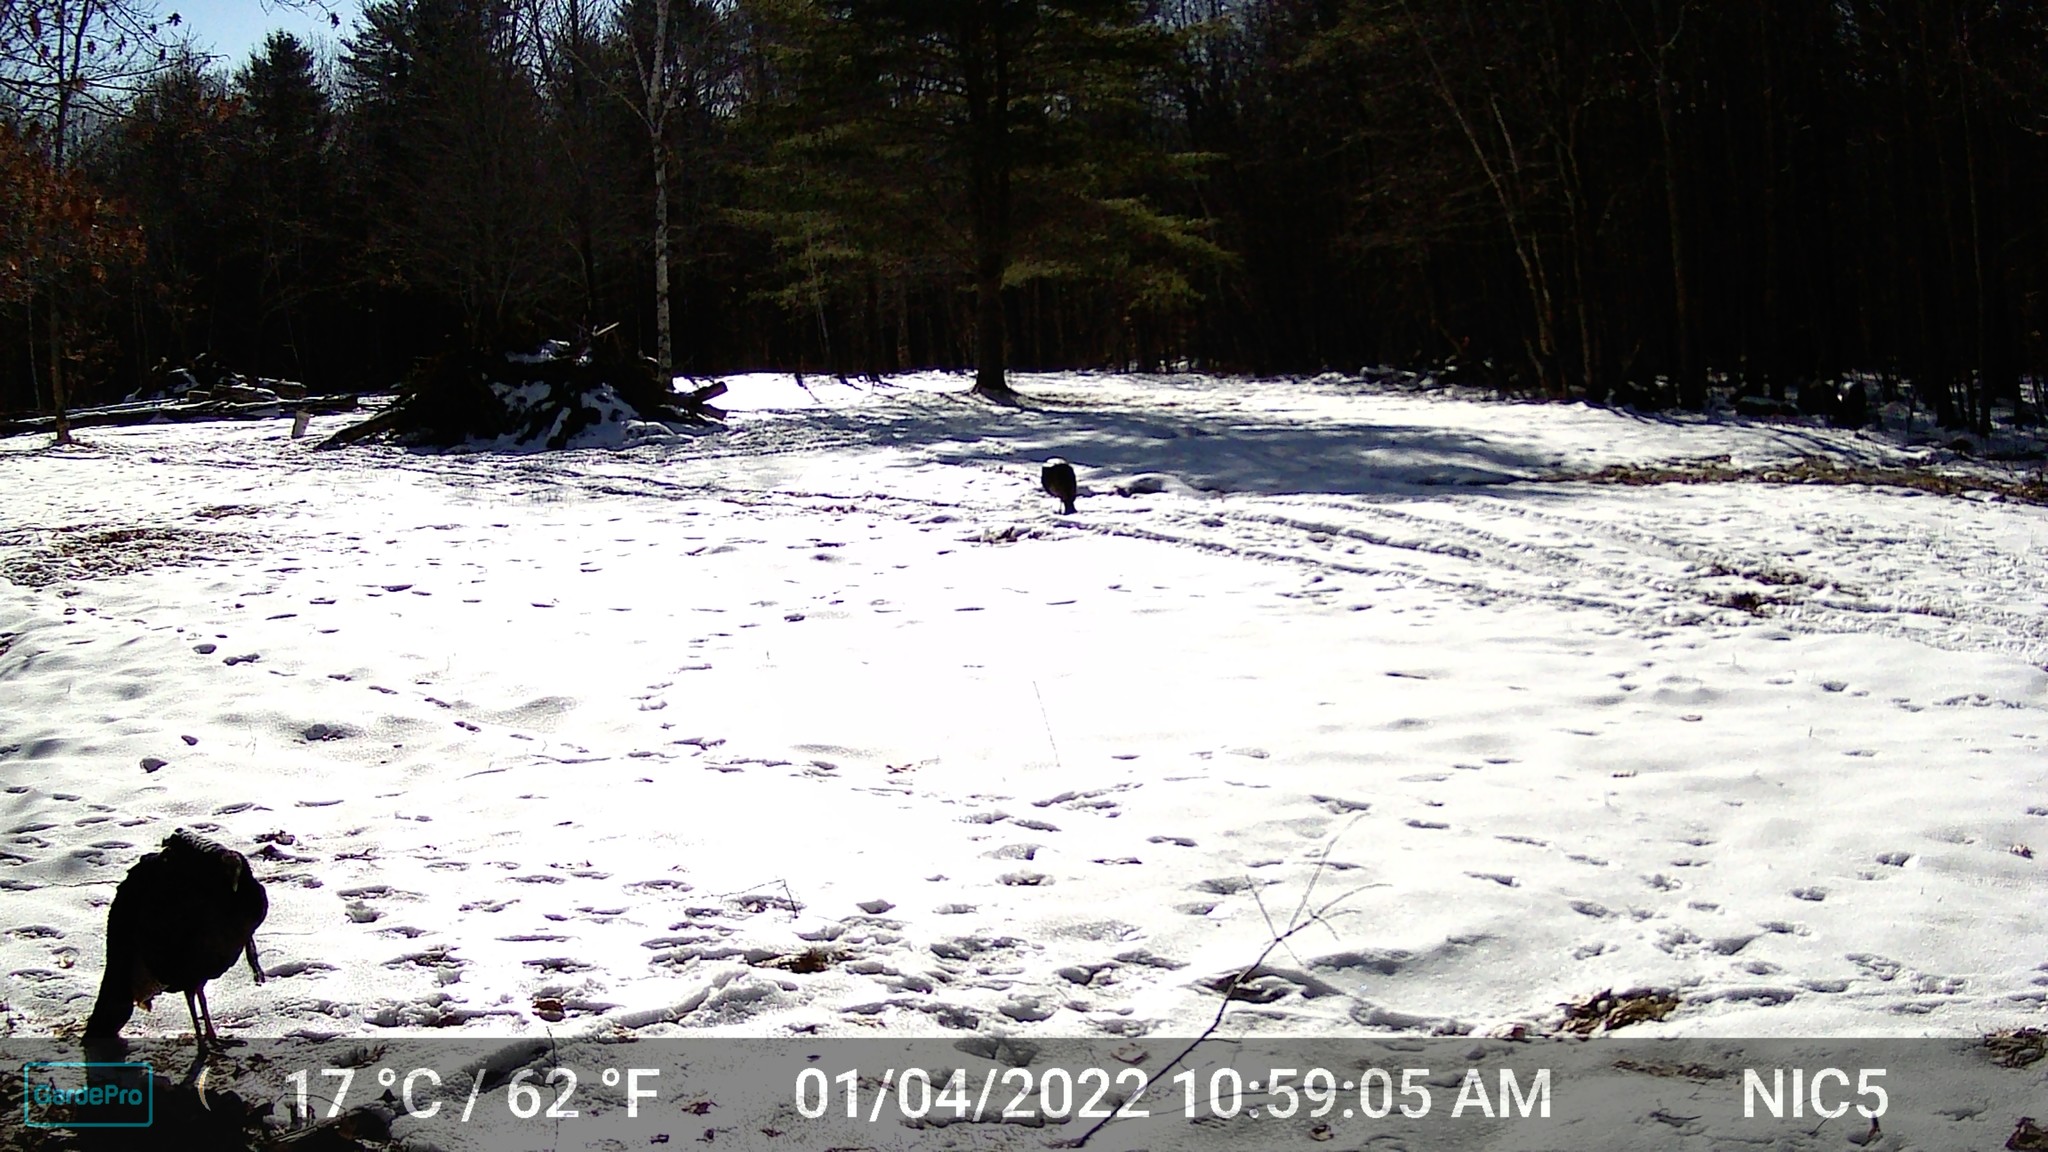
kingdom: Animalia
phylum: Chordata
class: Aves
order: Galliformes
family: Phasianidae
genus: Meleagris
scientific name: Meleagris gallopavo
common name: Wild turkey
